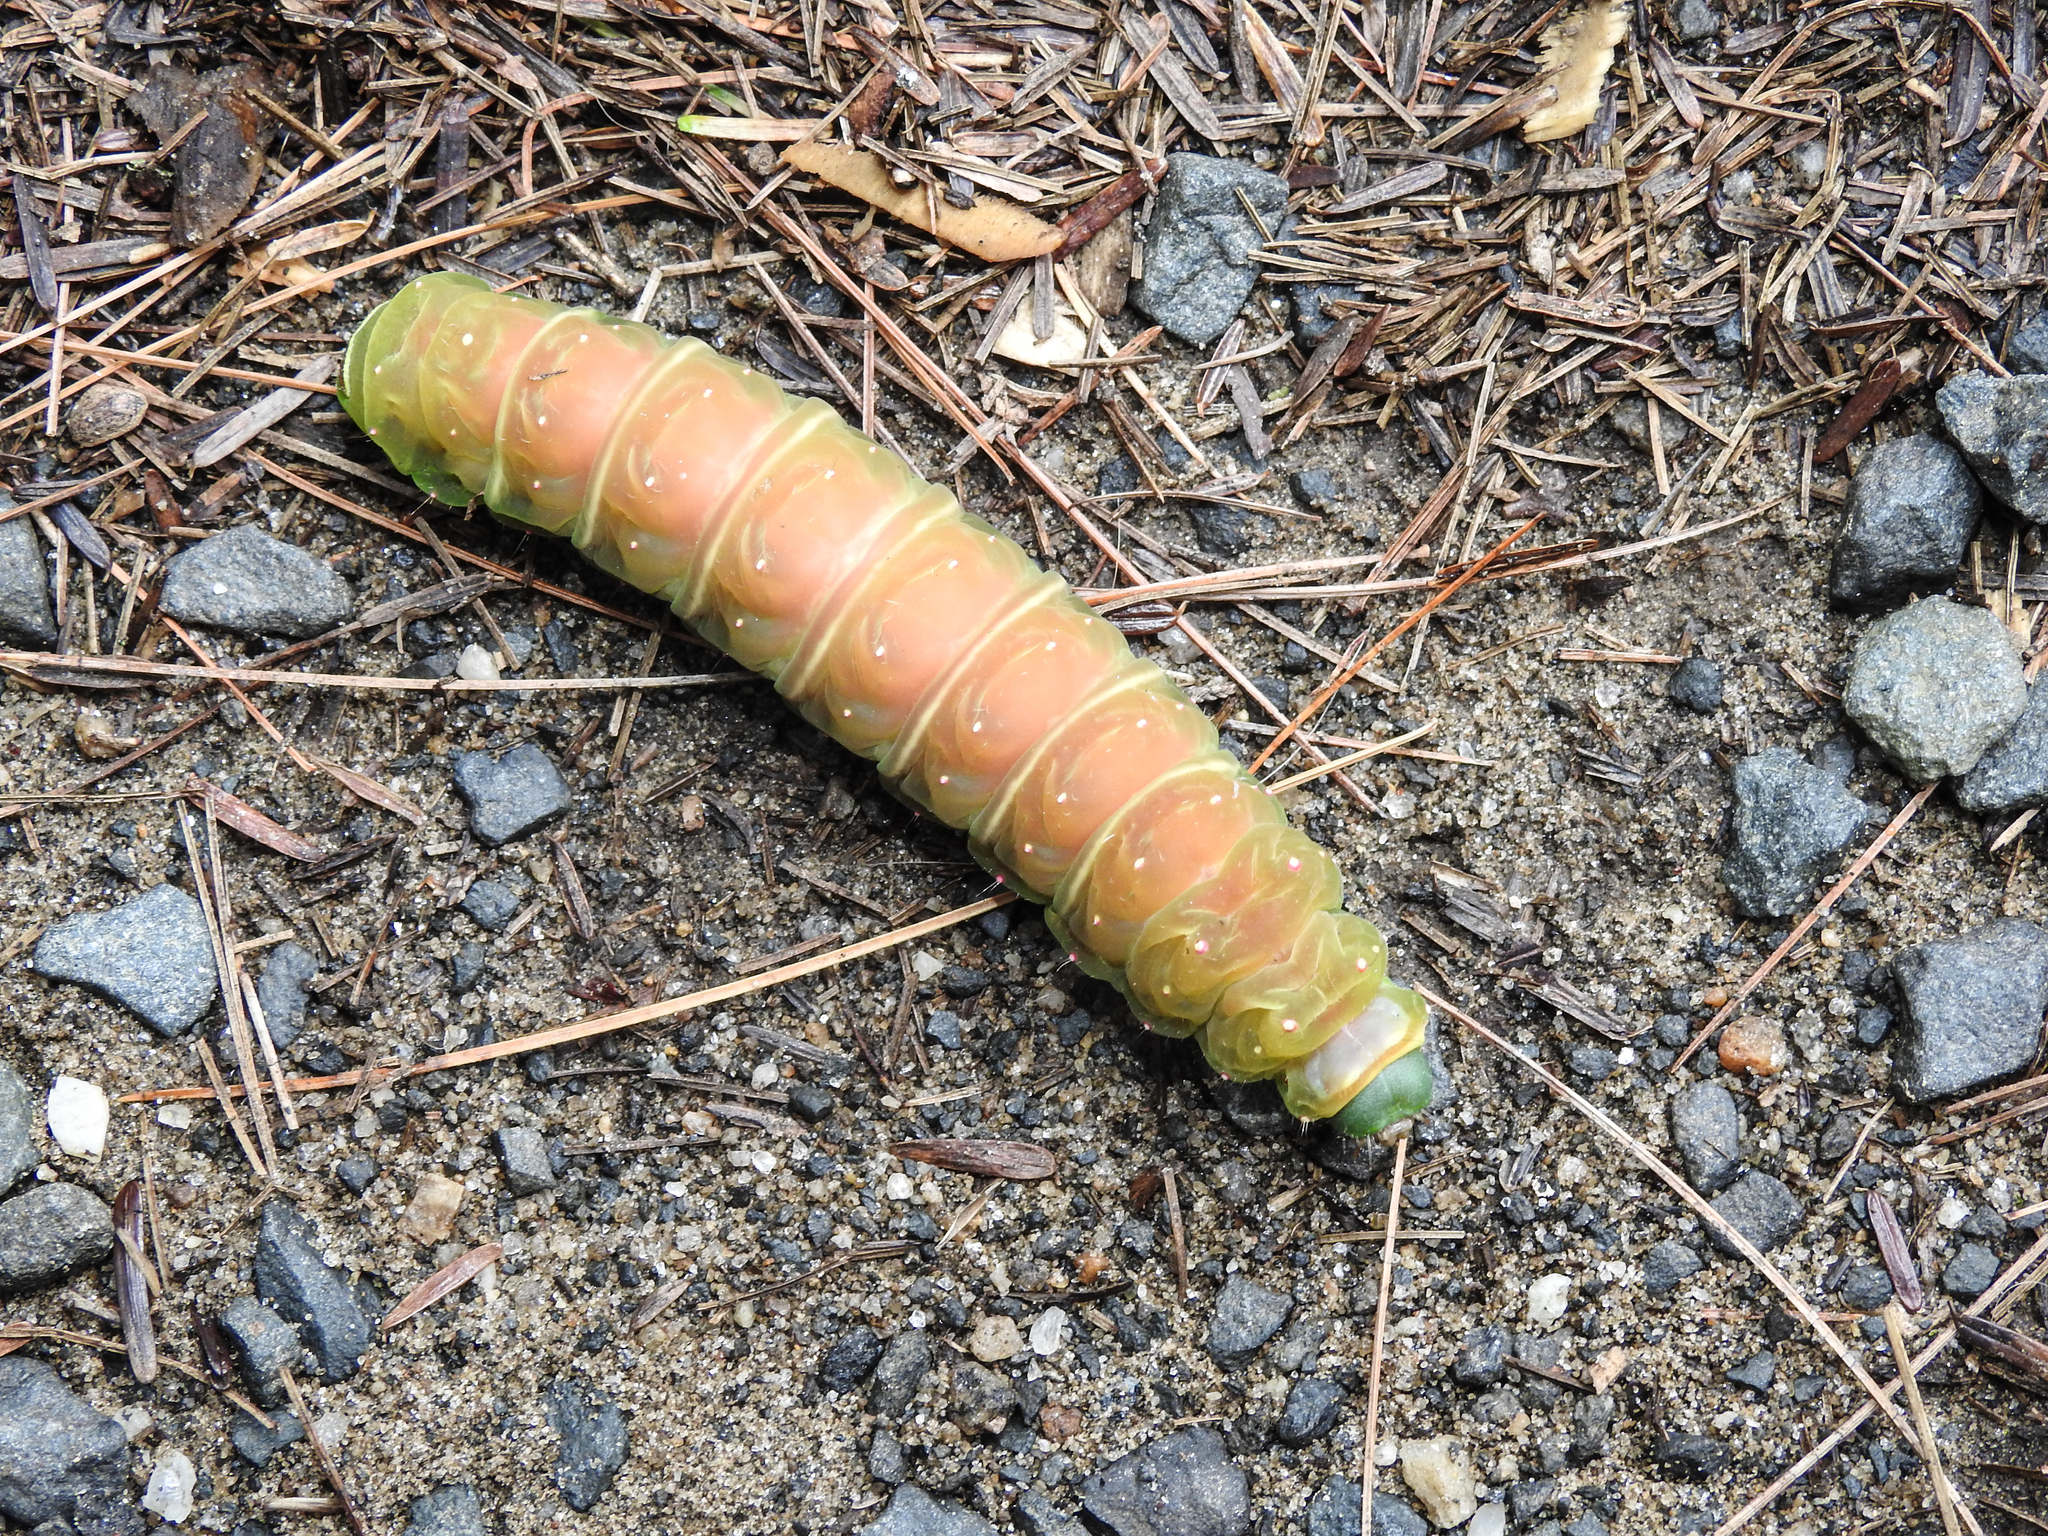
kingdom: Animalia
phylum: Arthropoda
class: Insecta
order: Lepidoptera
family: Saturniidae
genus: Actias
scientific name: Actias luna
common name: Luna moth
